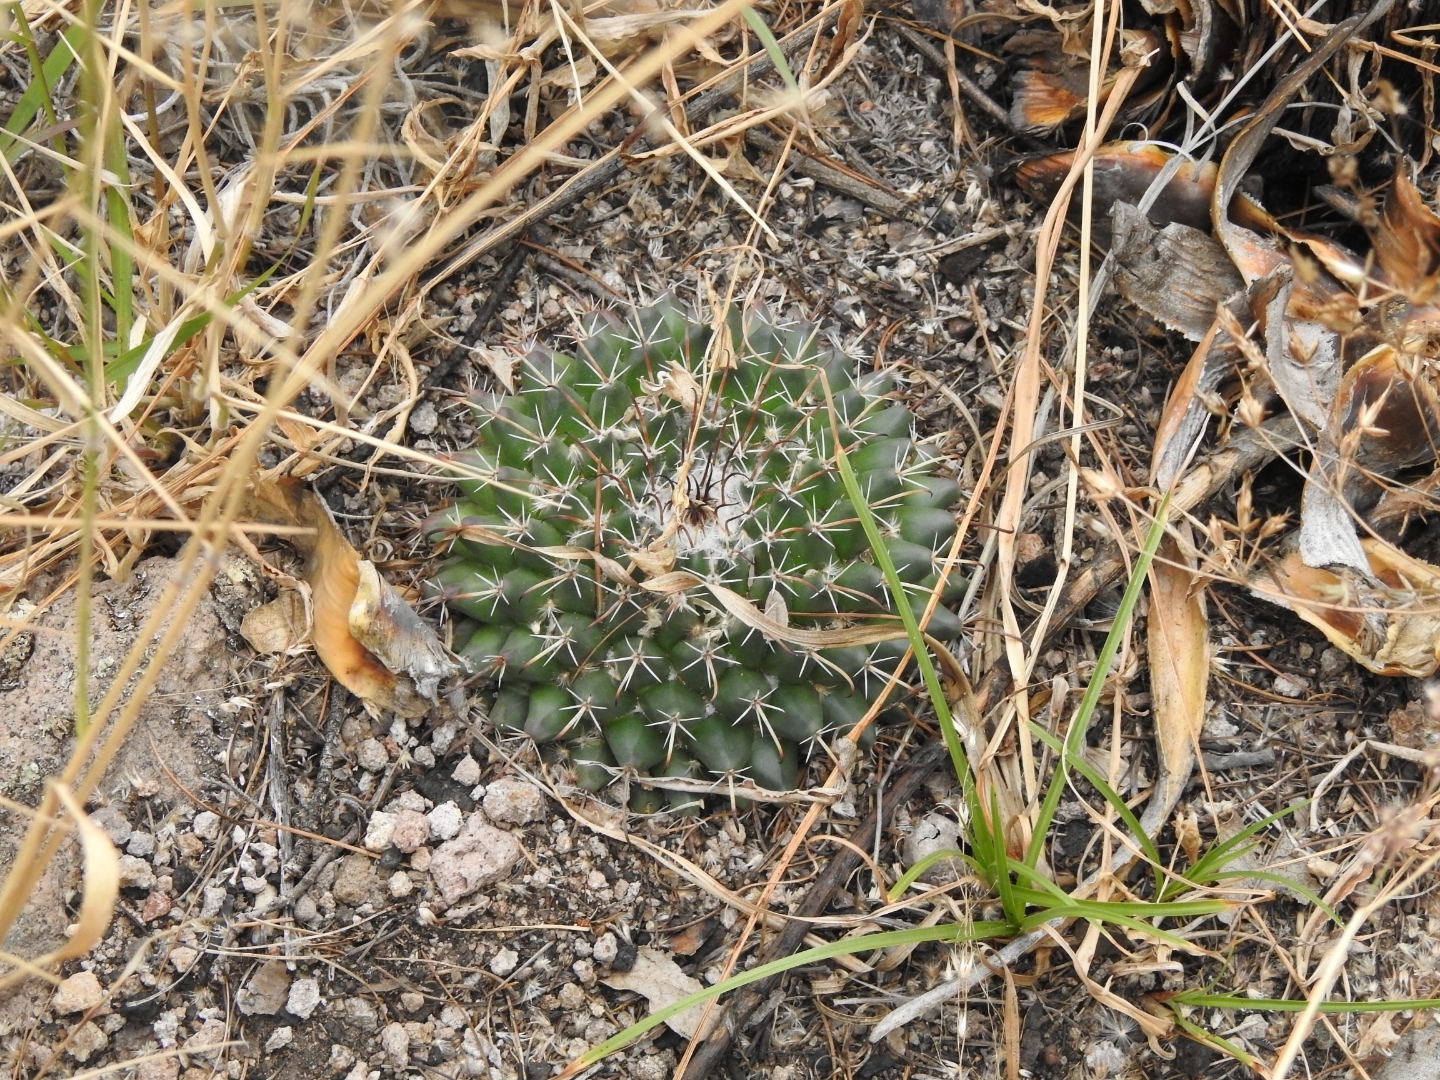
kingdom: Plantae
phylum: Tracheophyta
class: Magnoliopsida
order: Caryophyllales
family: Cactaceae
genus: Mammillaria
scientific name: Mammillaria uncinata
